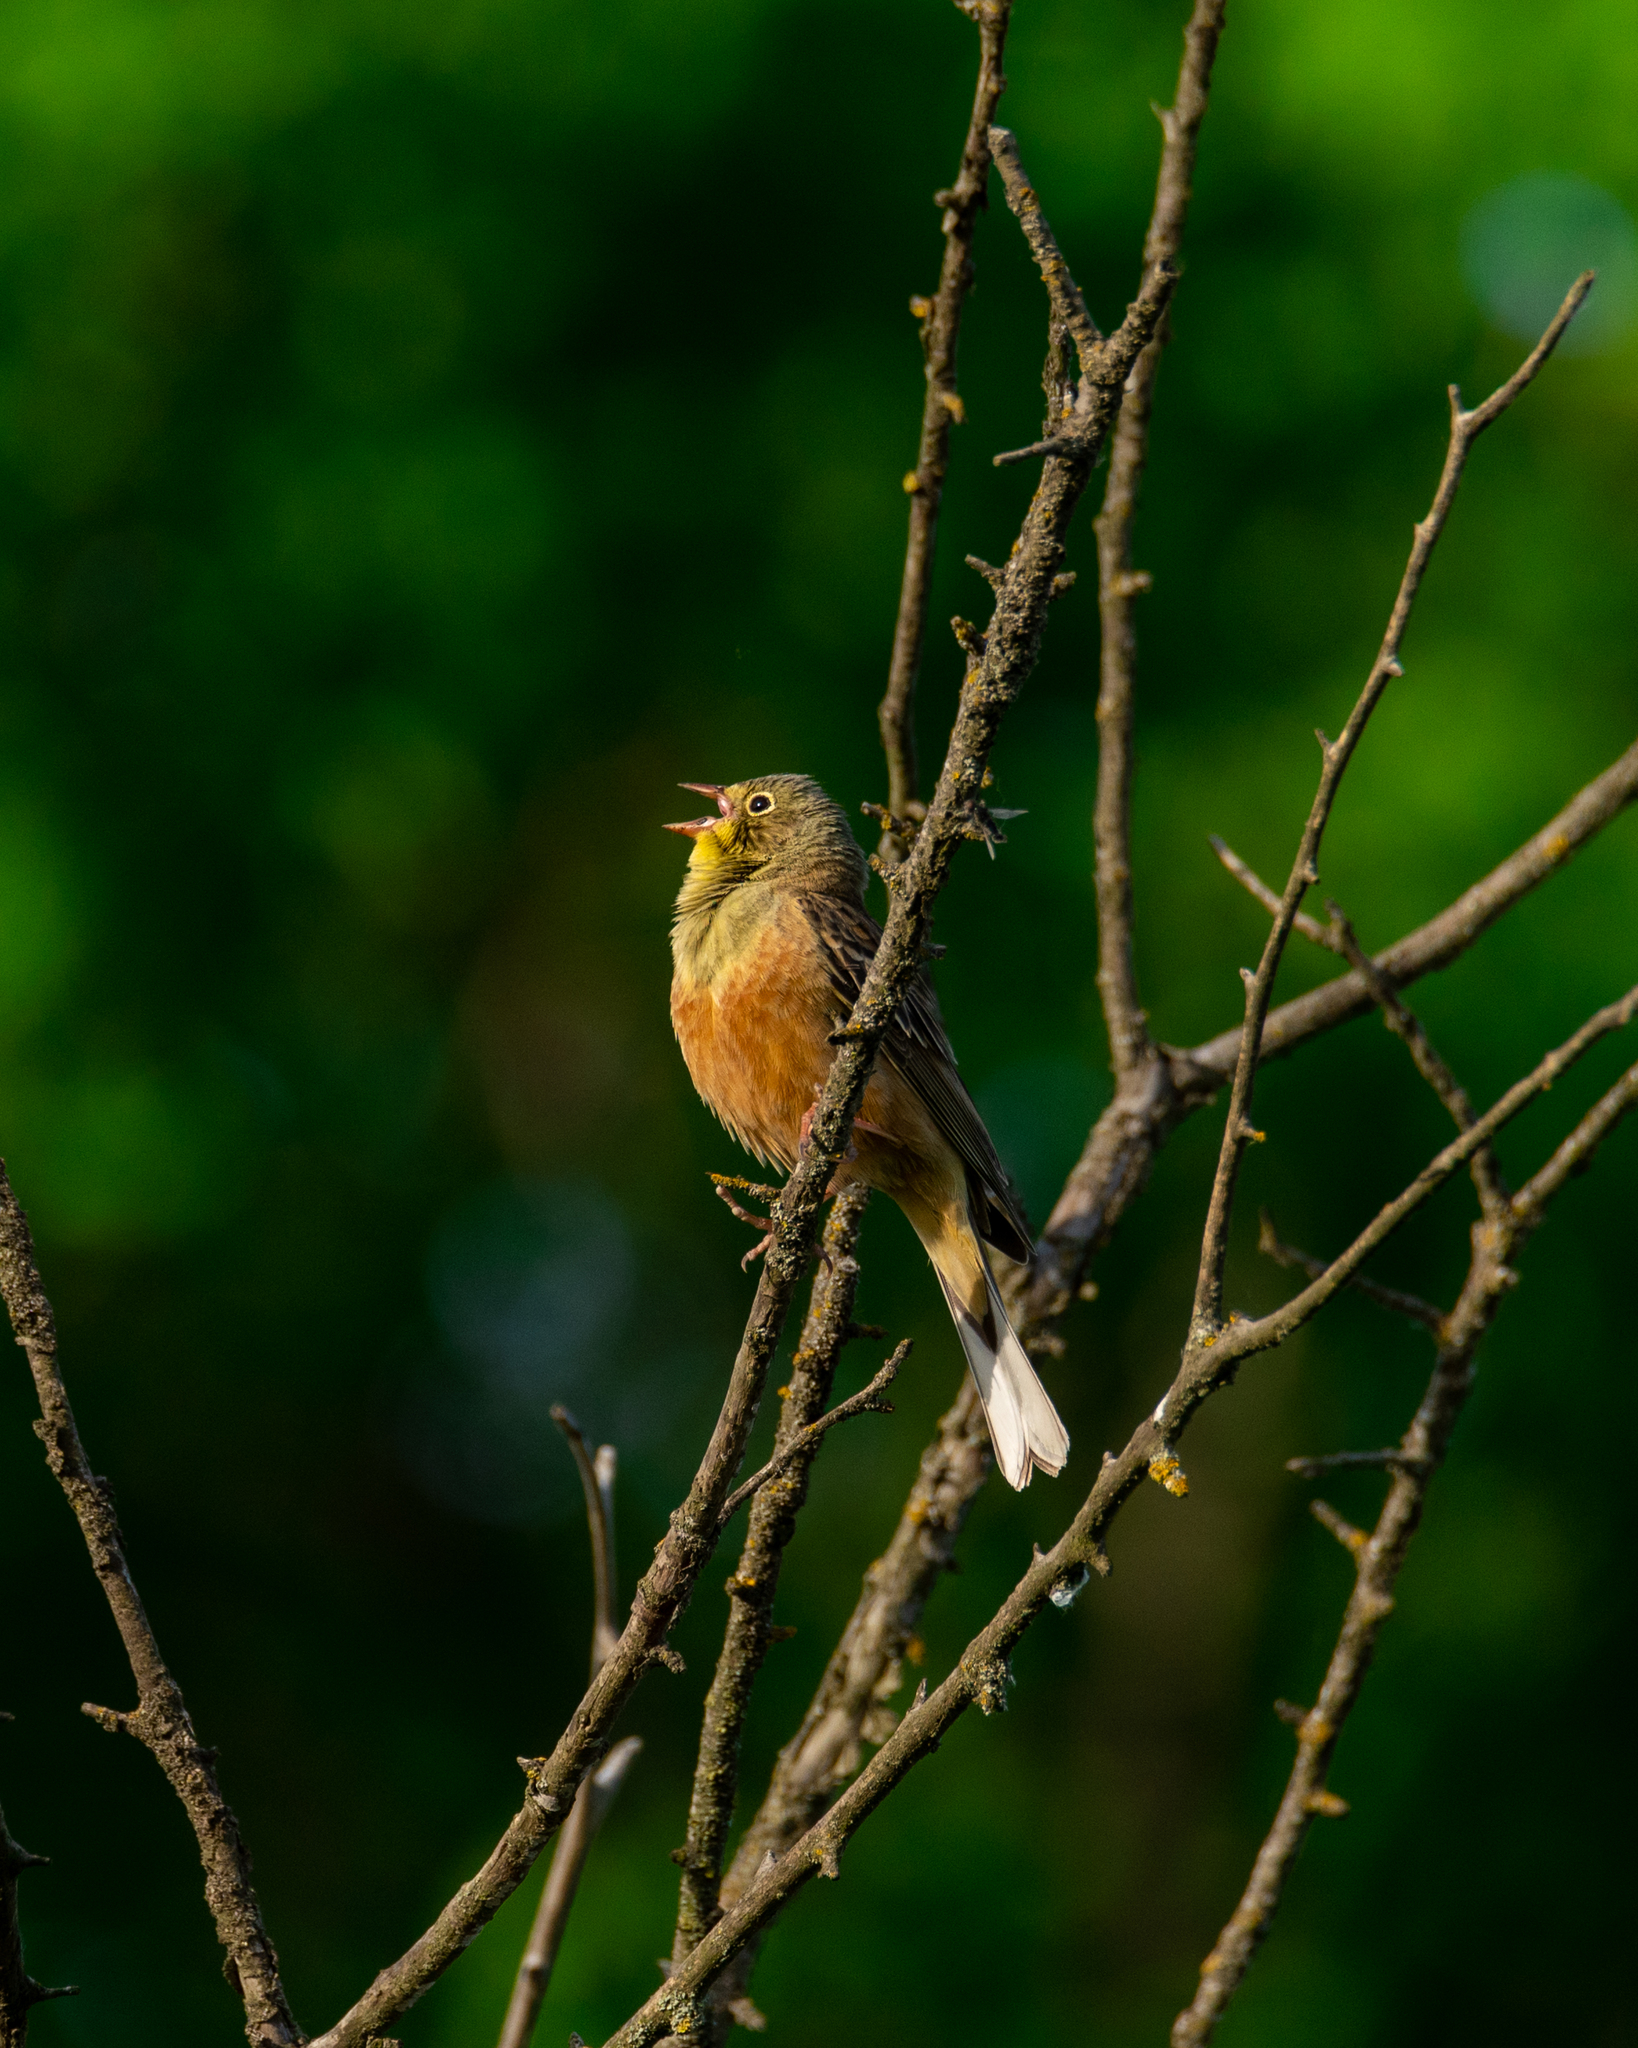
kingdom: Animalia
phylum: Chordata
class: Aves
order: Passeriformes
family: Emberizidae
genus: Emberiza
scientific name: Emberiza hortulana
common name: Ortolan bunting
